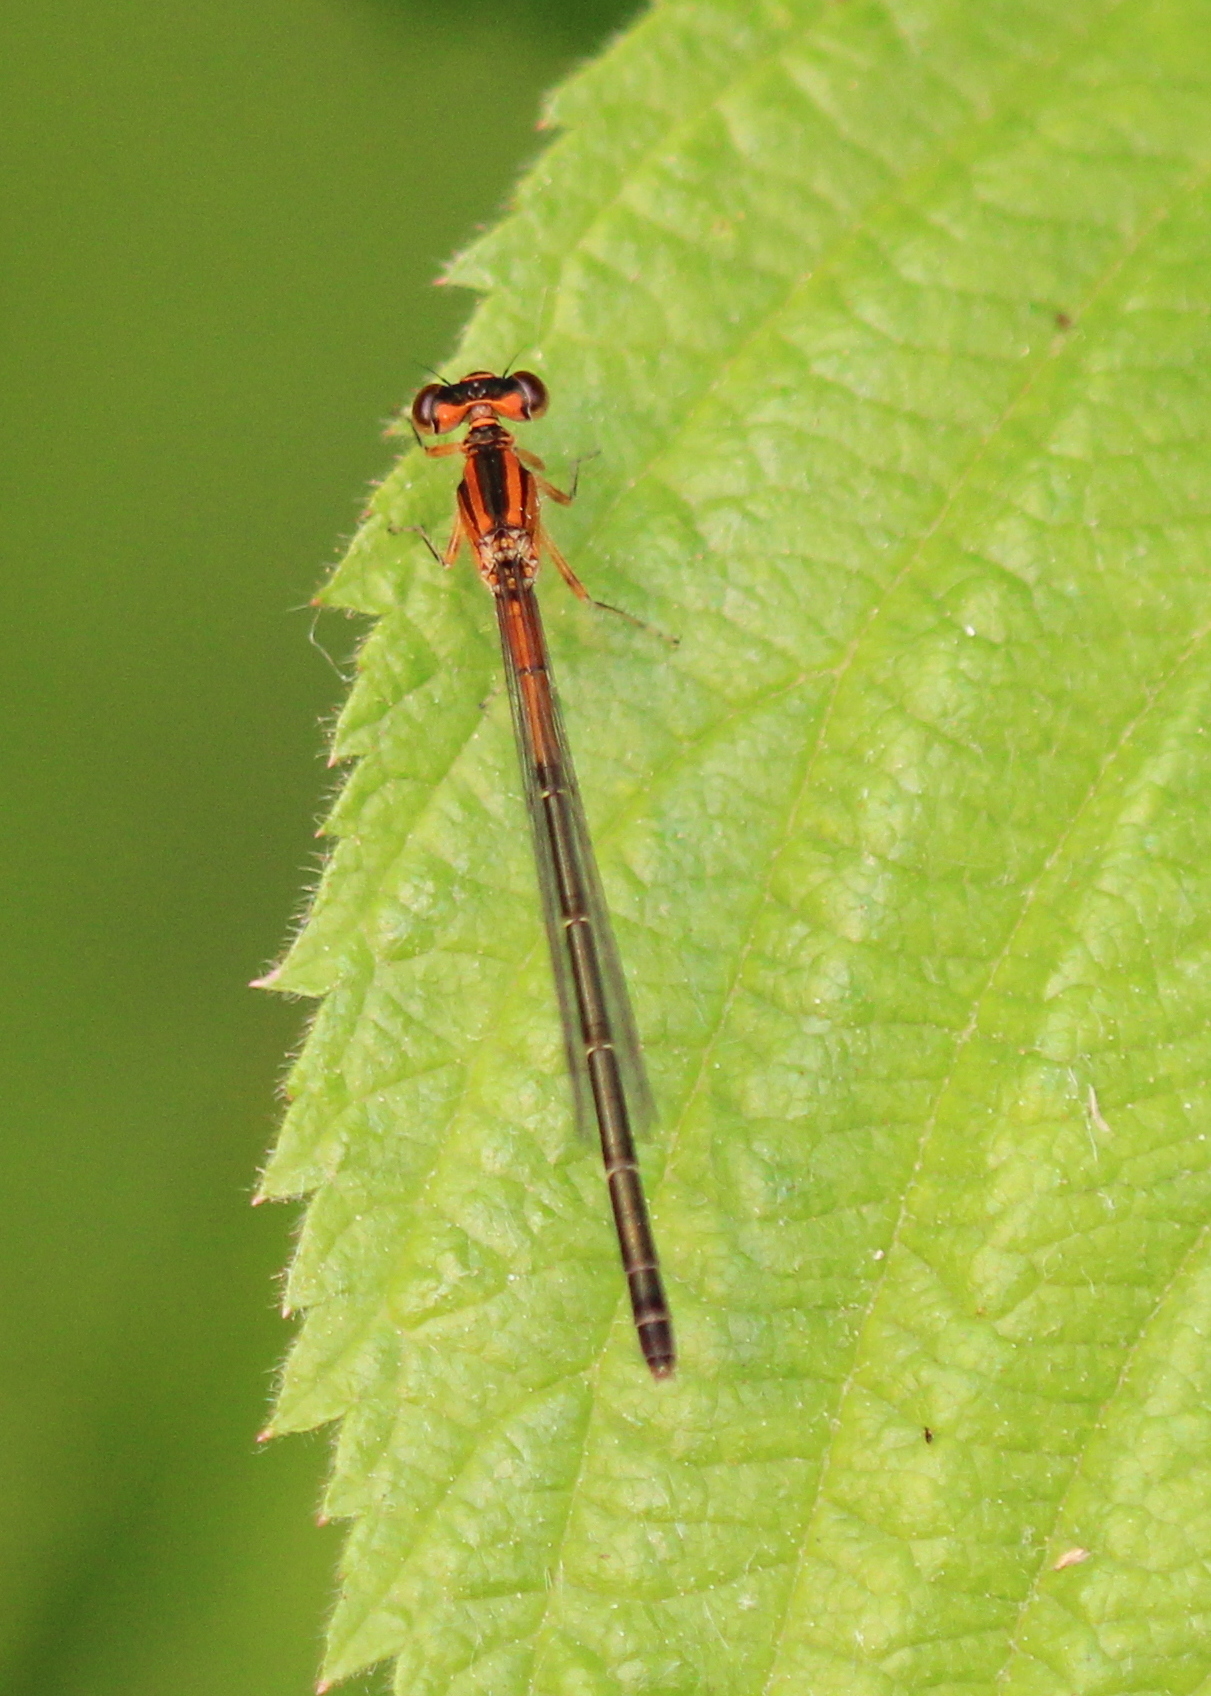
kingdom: Animalia
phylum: Arthropoda
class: Insecta
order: Odonata
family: Coenagrionidae
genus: Ischnura
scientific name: Ischnura verticalis
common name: Eastern forktail
